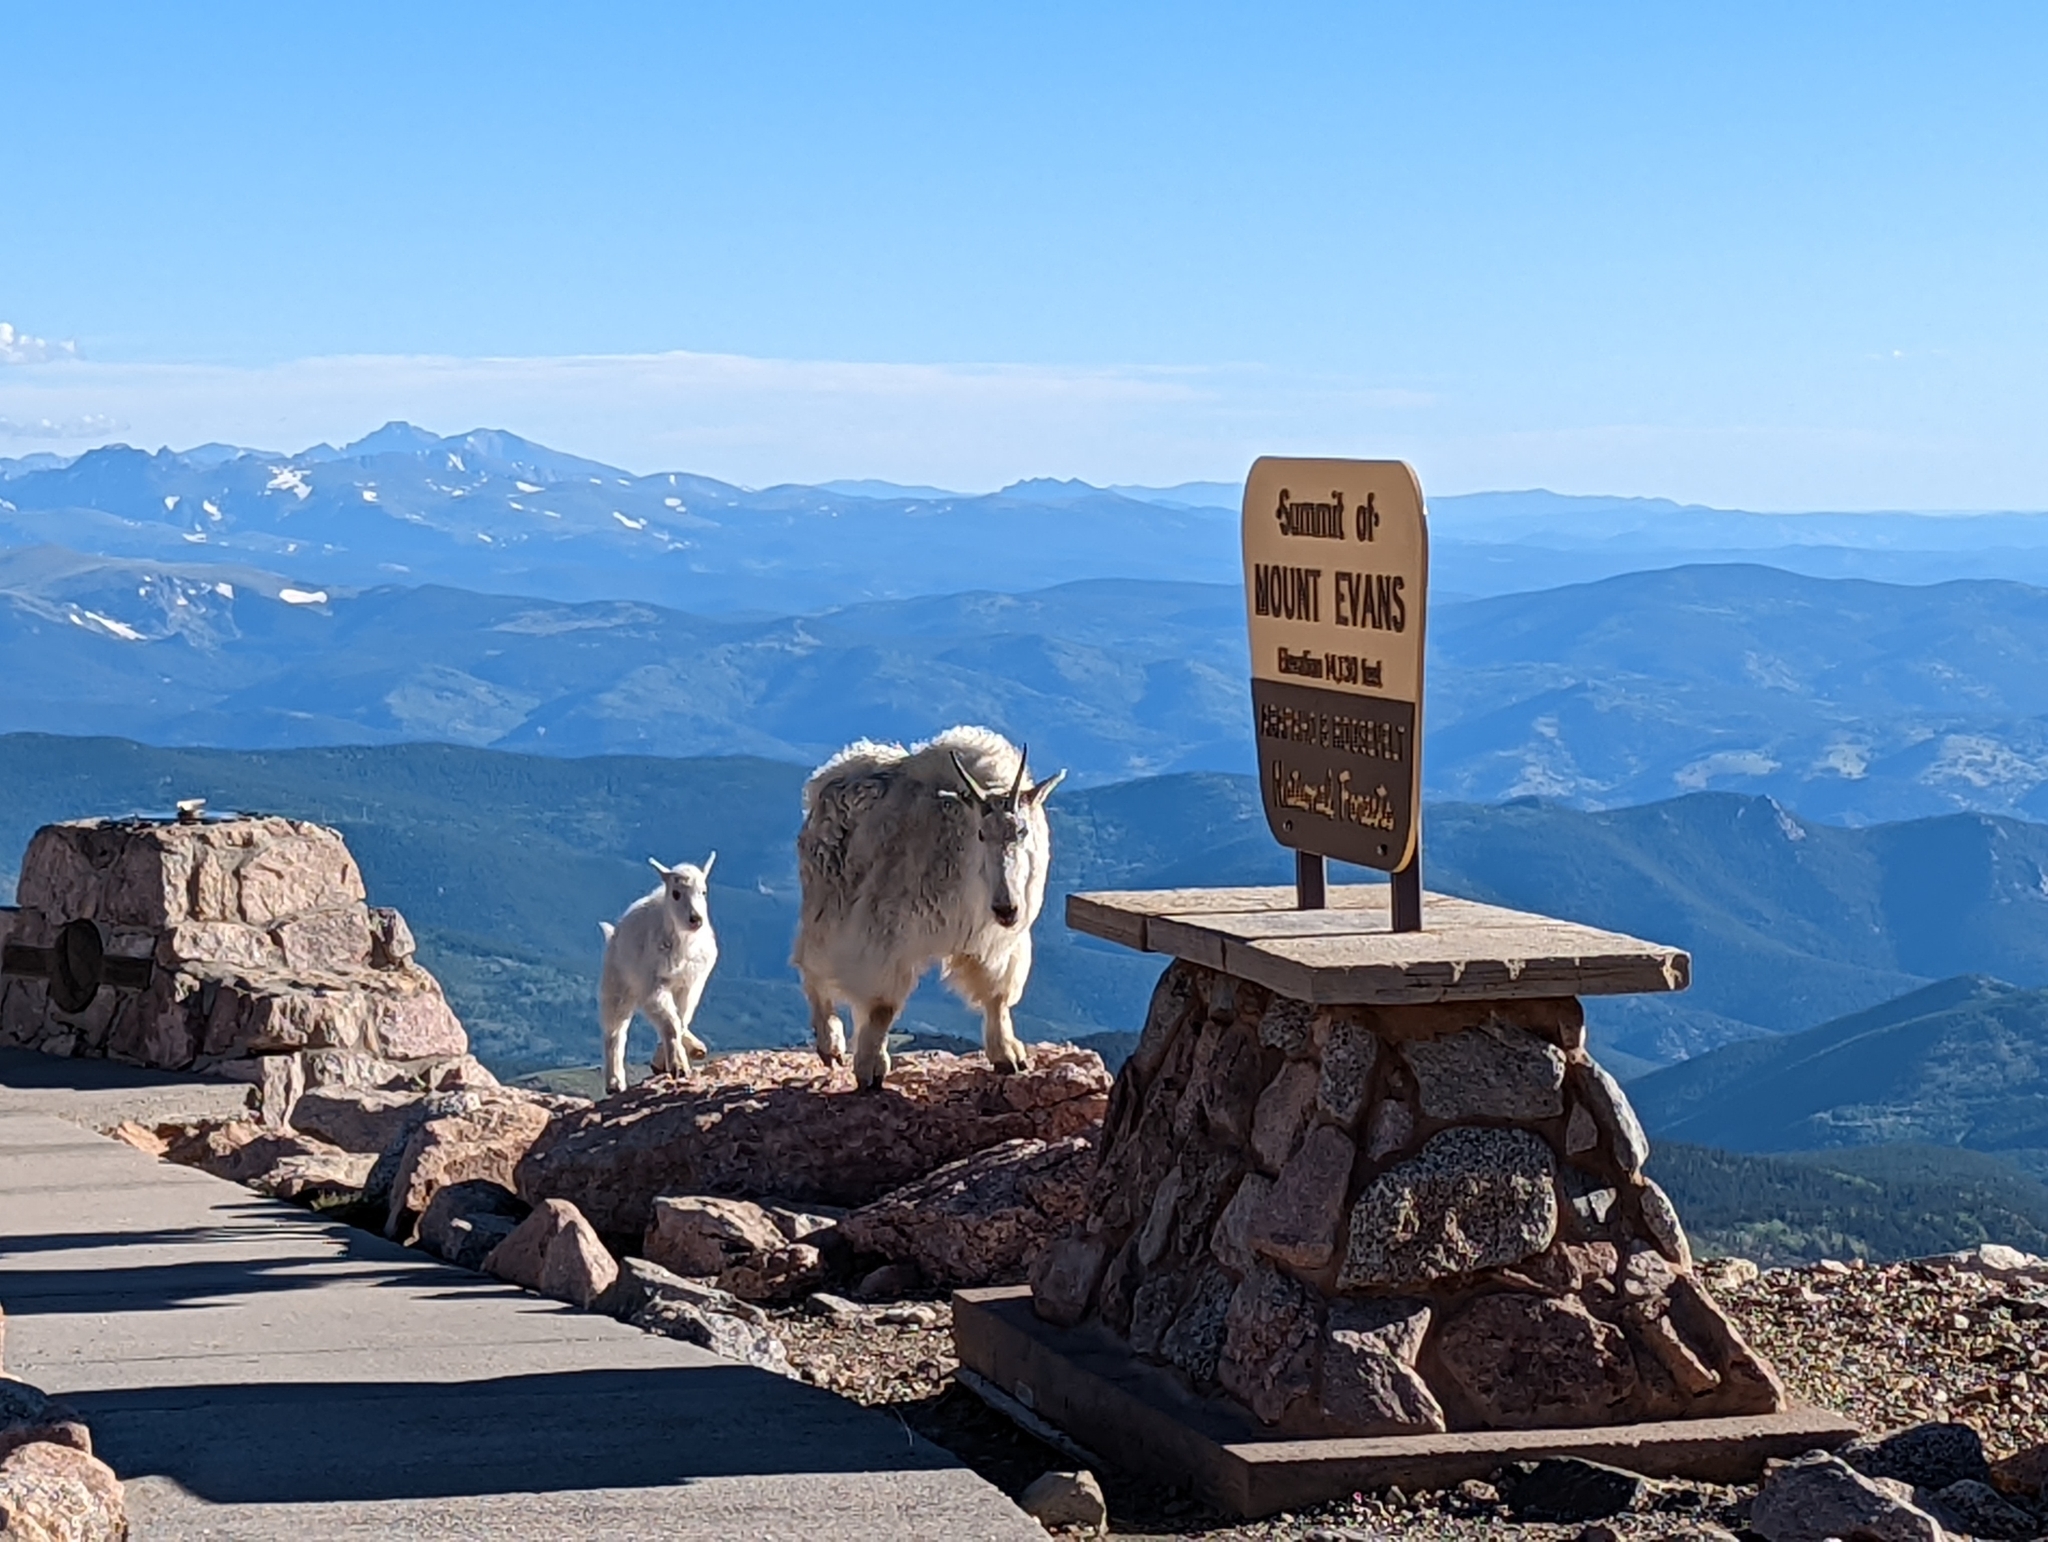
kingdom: Animalia
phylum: Chordata
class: Mammalia
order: Artiodactyla
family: Bovidae
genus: Oreamnos
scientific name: Oreamnos americanus
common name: Mountain goat
